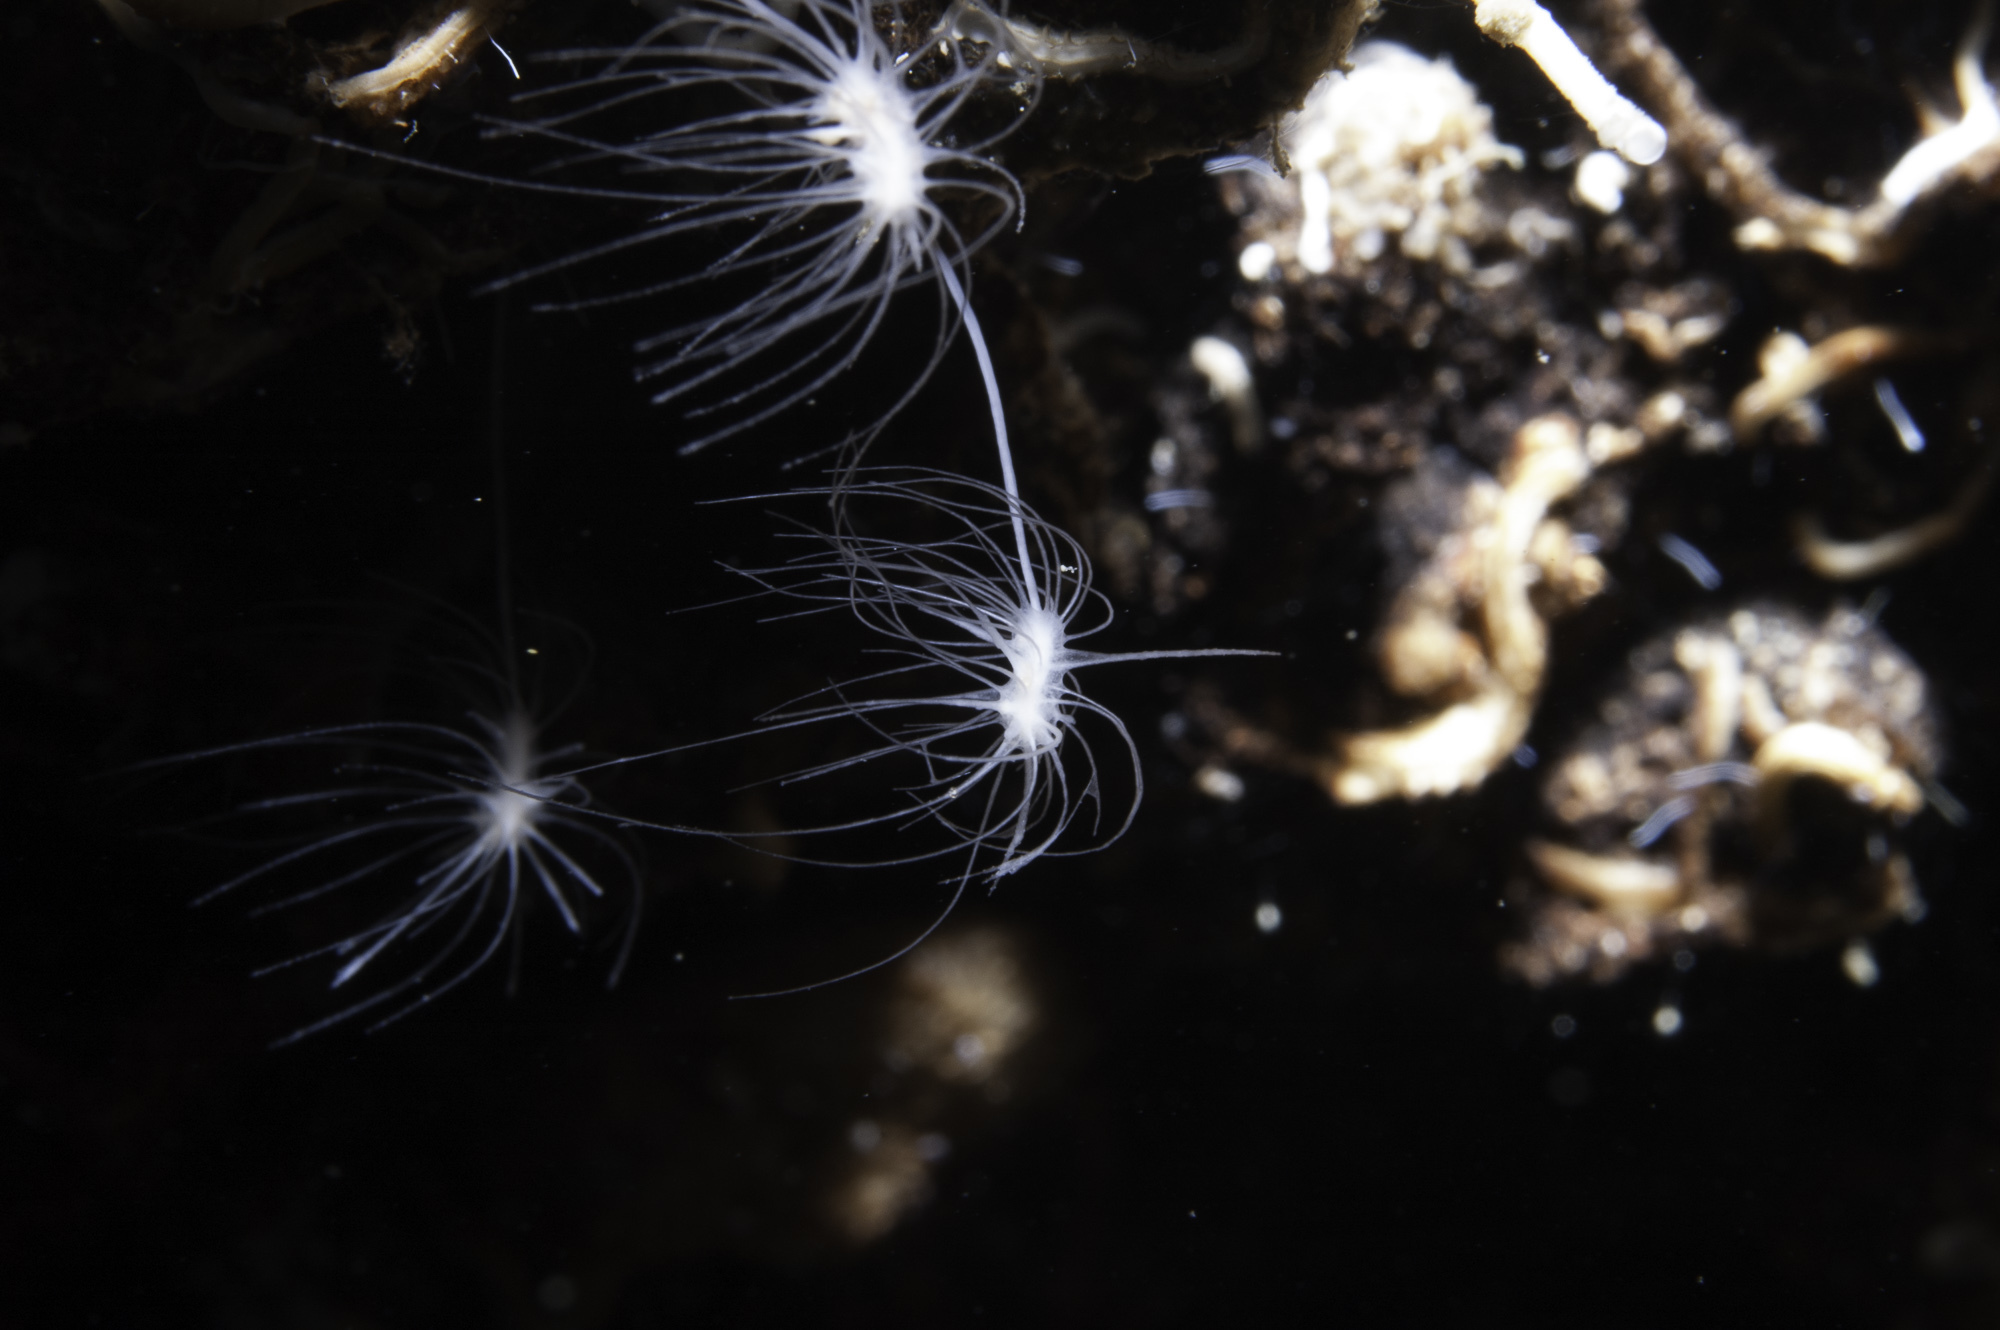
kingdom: Animalia
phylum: Porifera
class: Demospongiae
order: Poecilosclerida
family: Cladorhizidae
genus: Lycopodina
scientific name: Lycopodina hypogea
